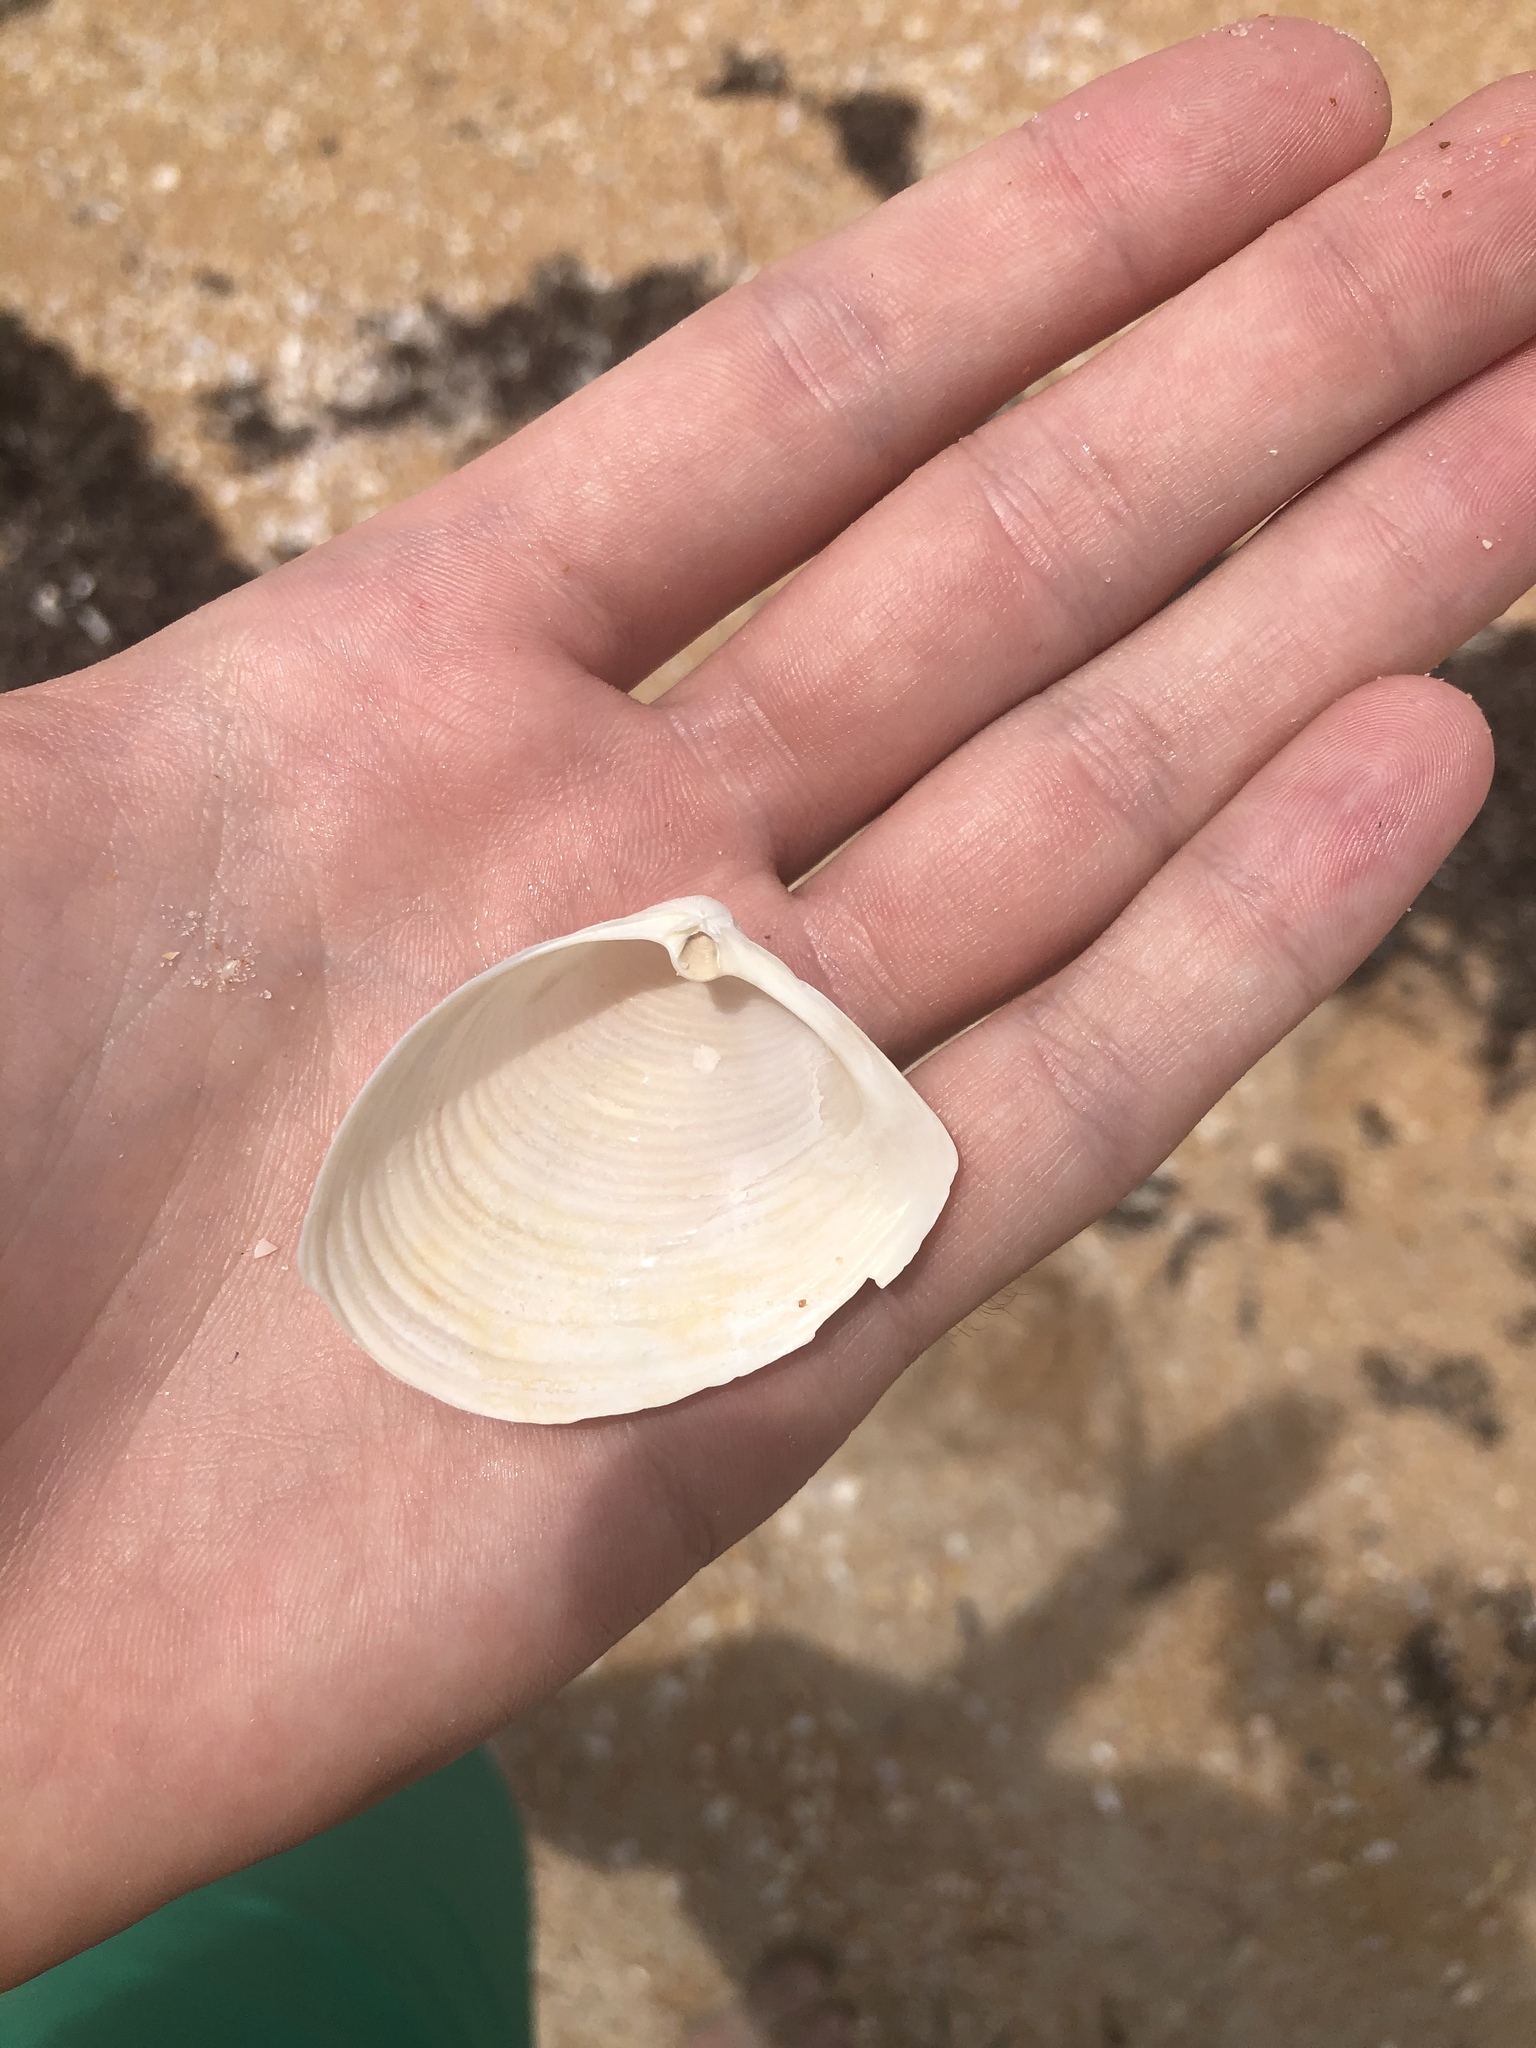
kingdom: Animalia
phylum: Mollusca
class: Bivalvia
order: Venerida
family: Anatinellidae
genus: Raeta
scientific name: Raeta plicatella
